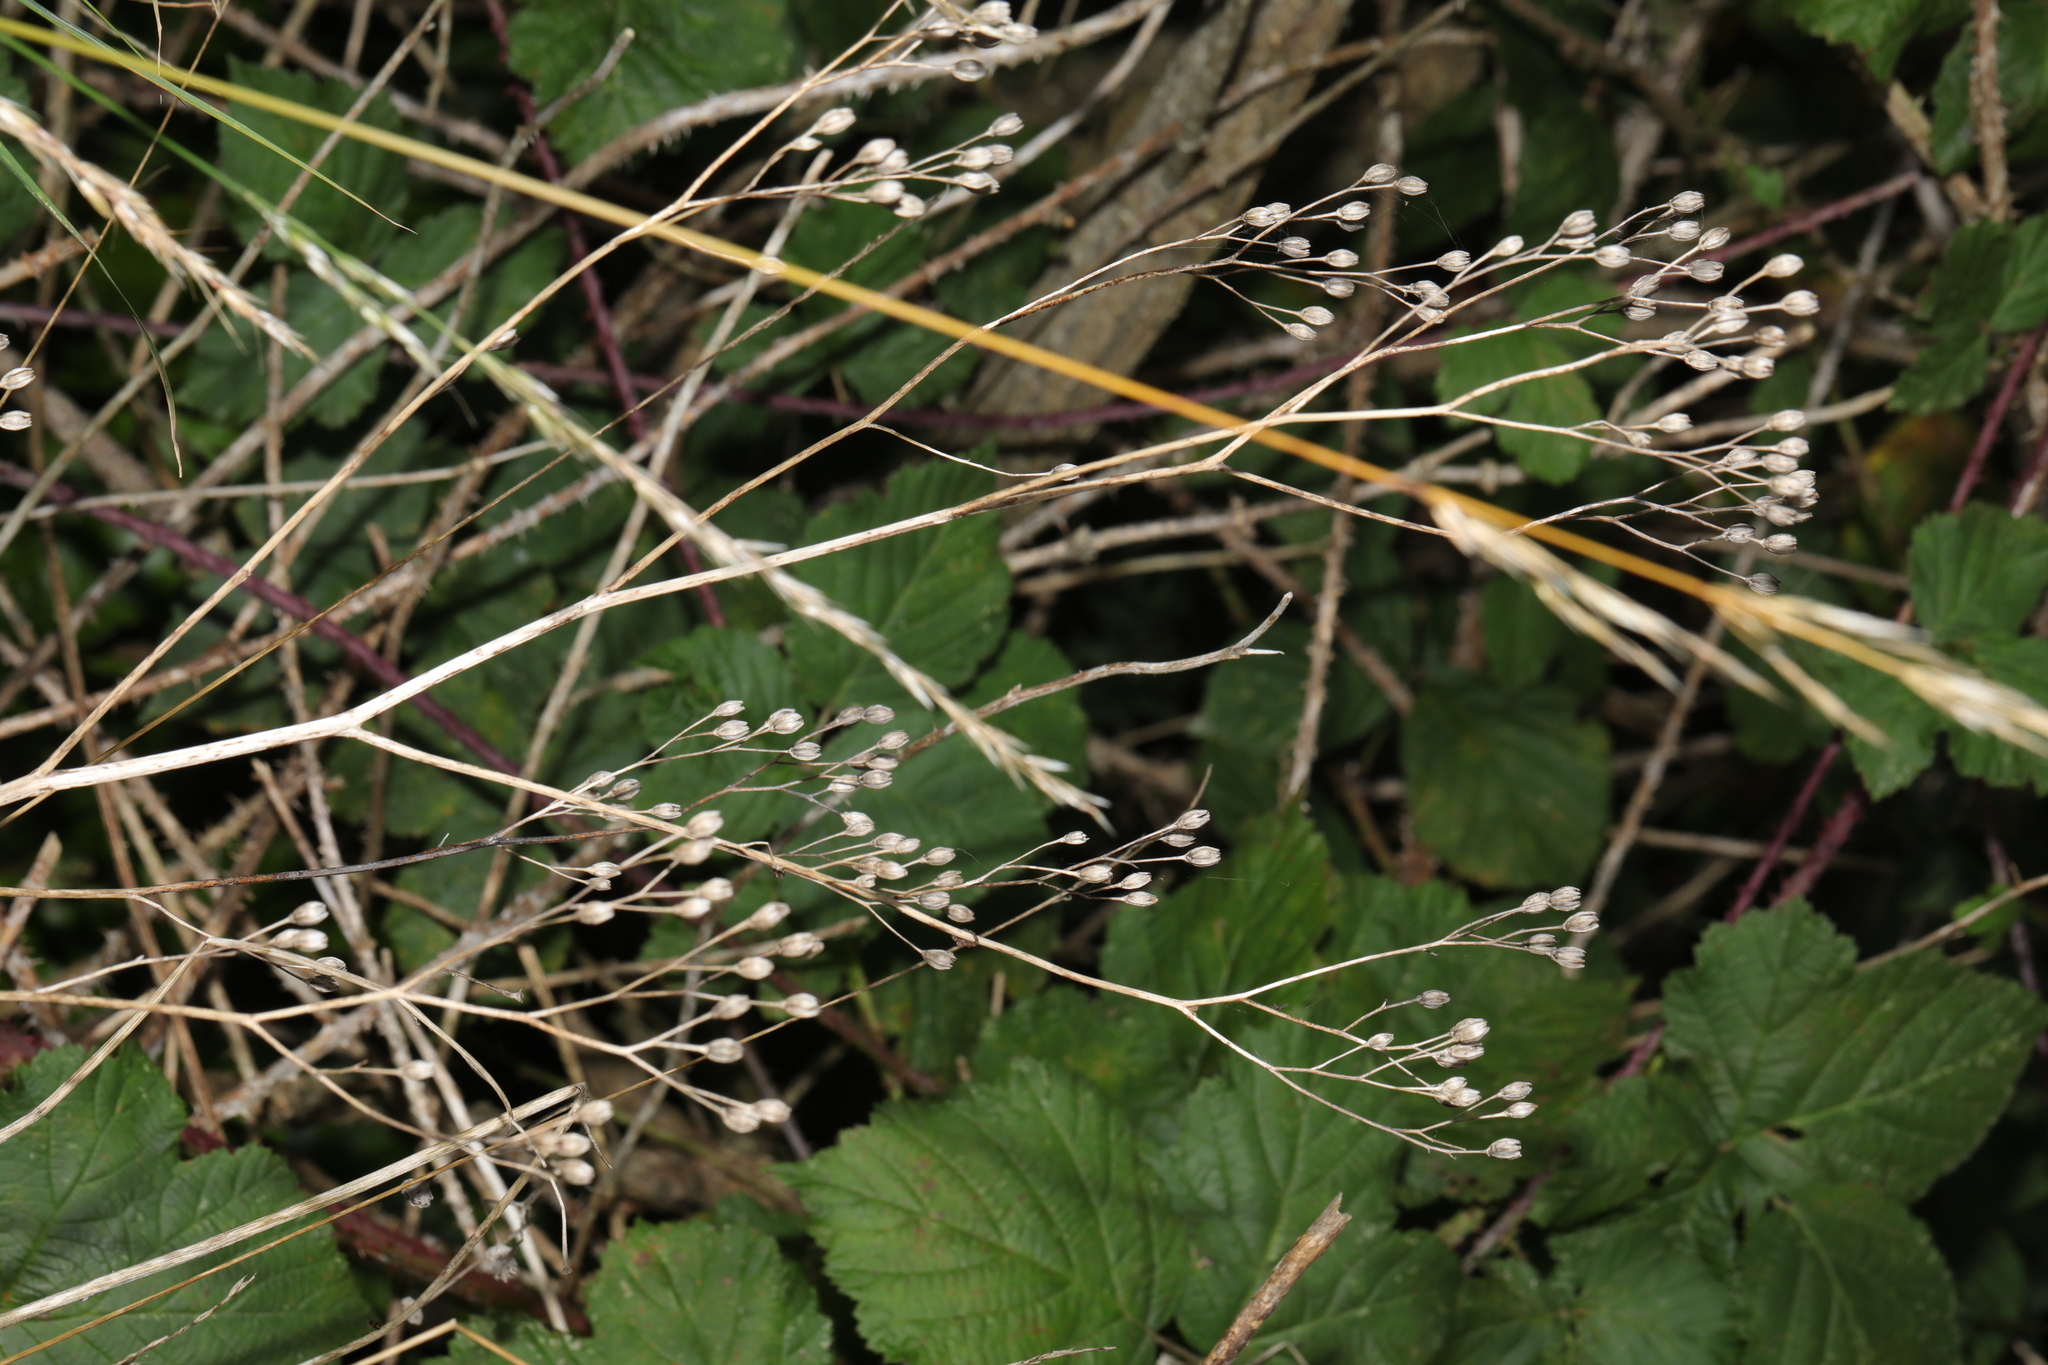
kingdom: Plantae
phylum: Tracheophyta
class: Magnoliopsida
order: Asterales
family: Asteraceae
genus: Lapsana
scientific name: Lapsana communis
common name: Nipplewort
